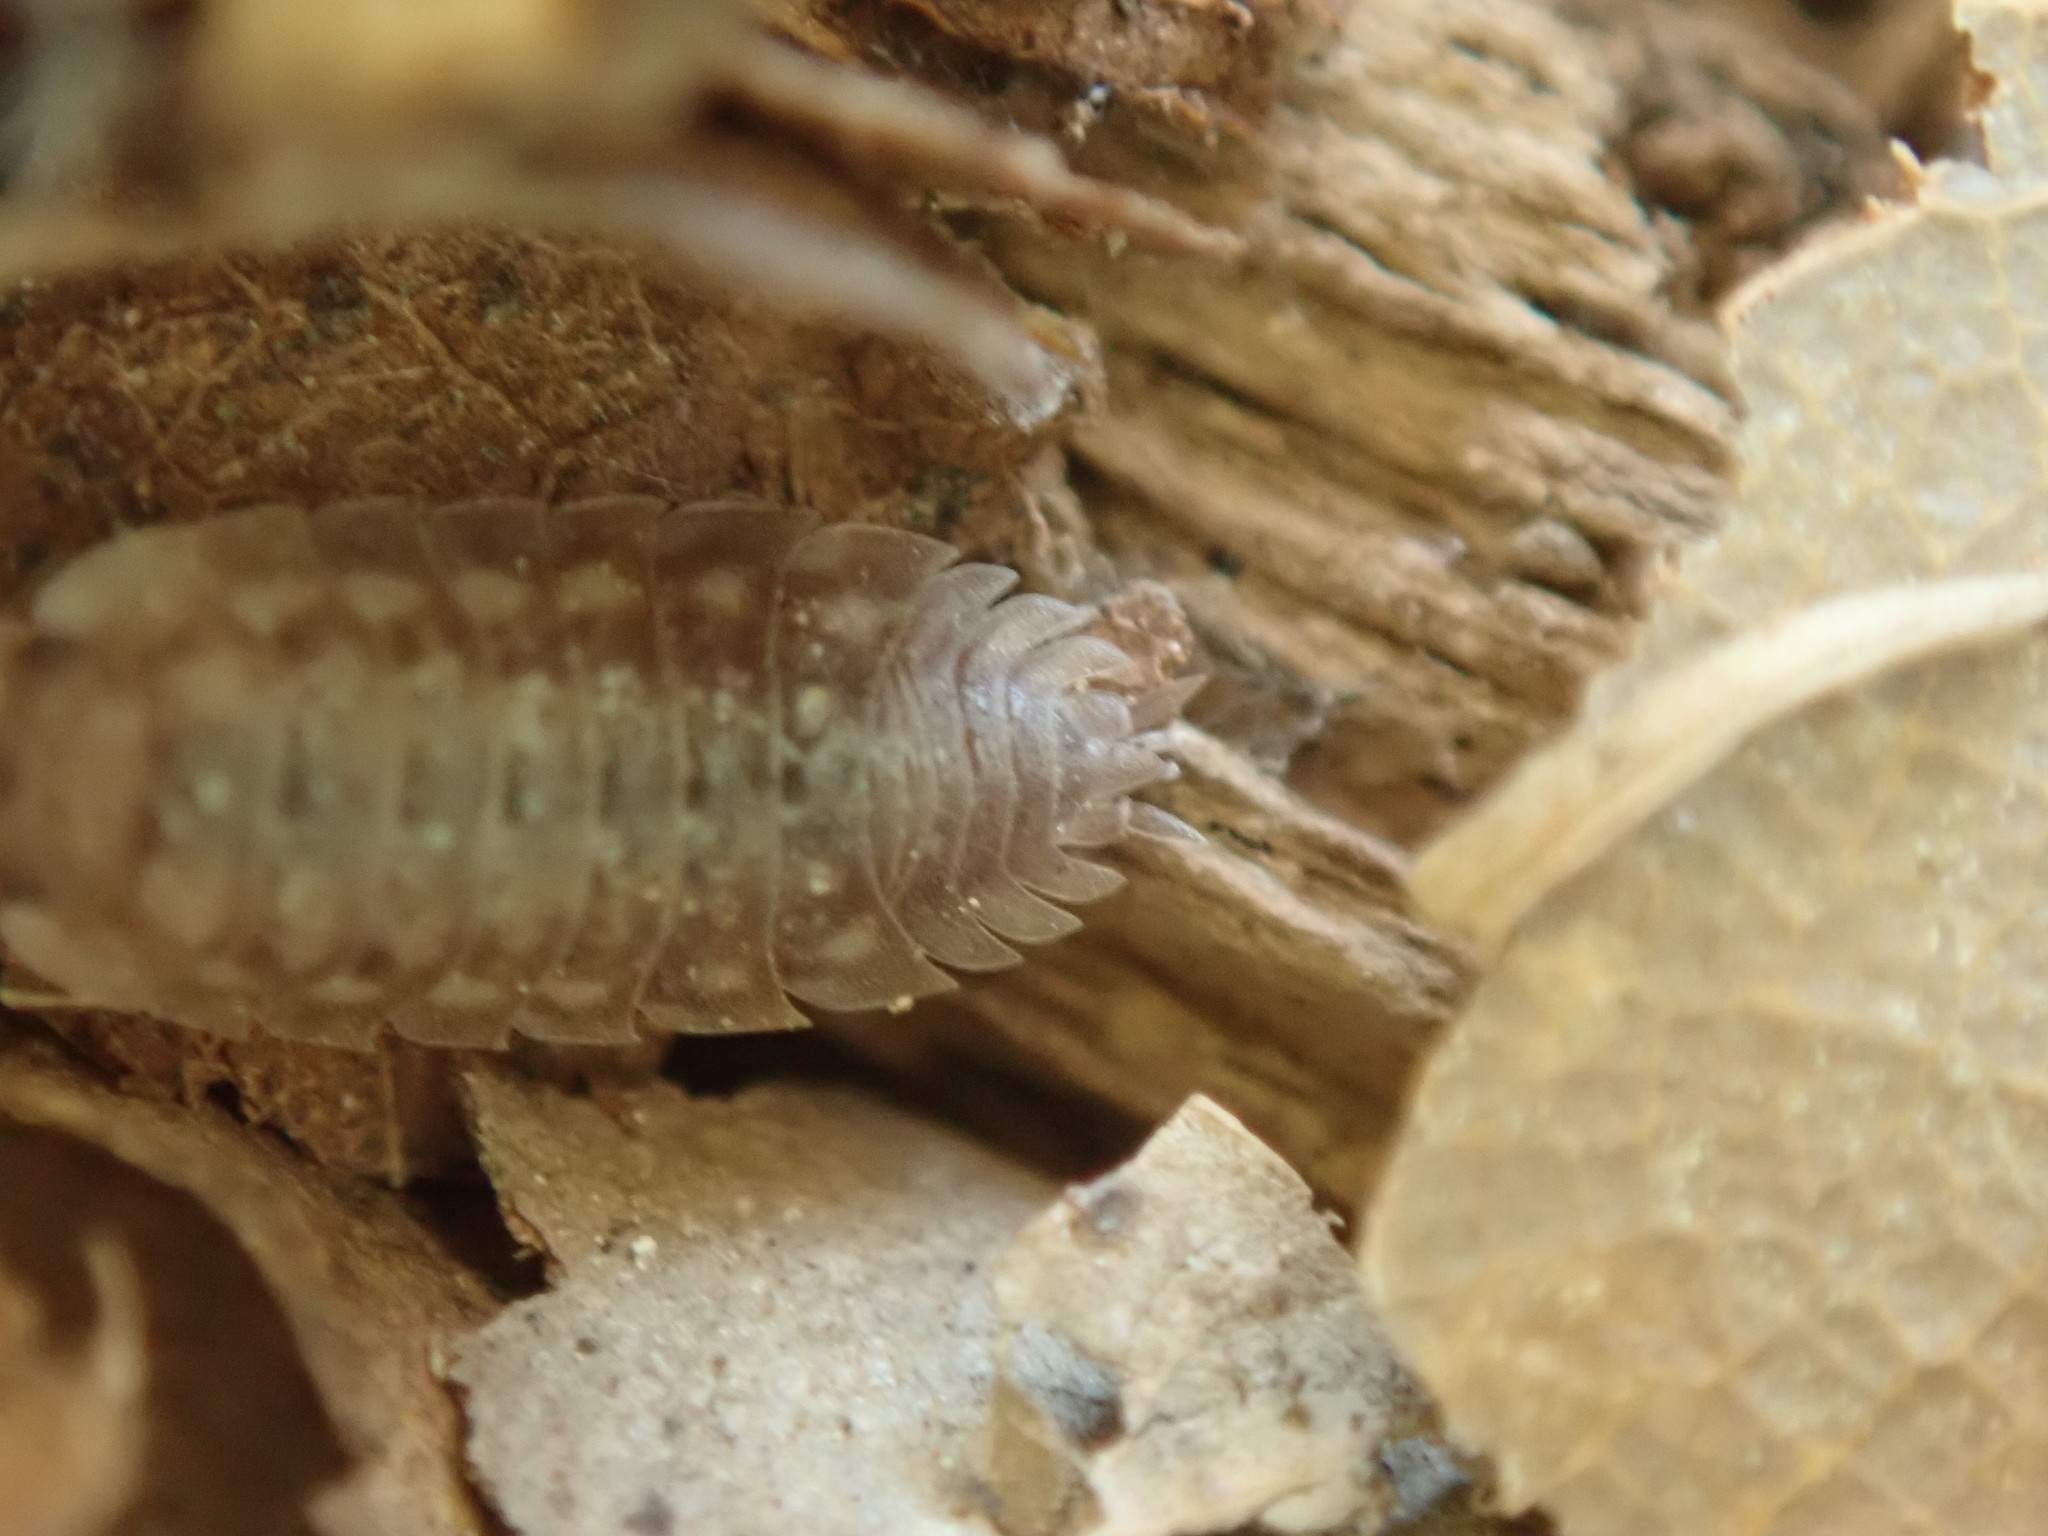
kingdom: Animalia
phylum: Arthropoda
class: Malacostraca
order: Isopoda
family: Oniscidae
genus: Oniscus
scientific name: Oniscus asellus
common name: Common shiny woodlouse
